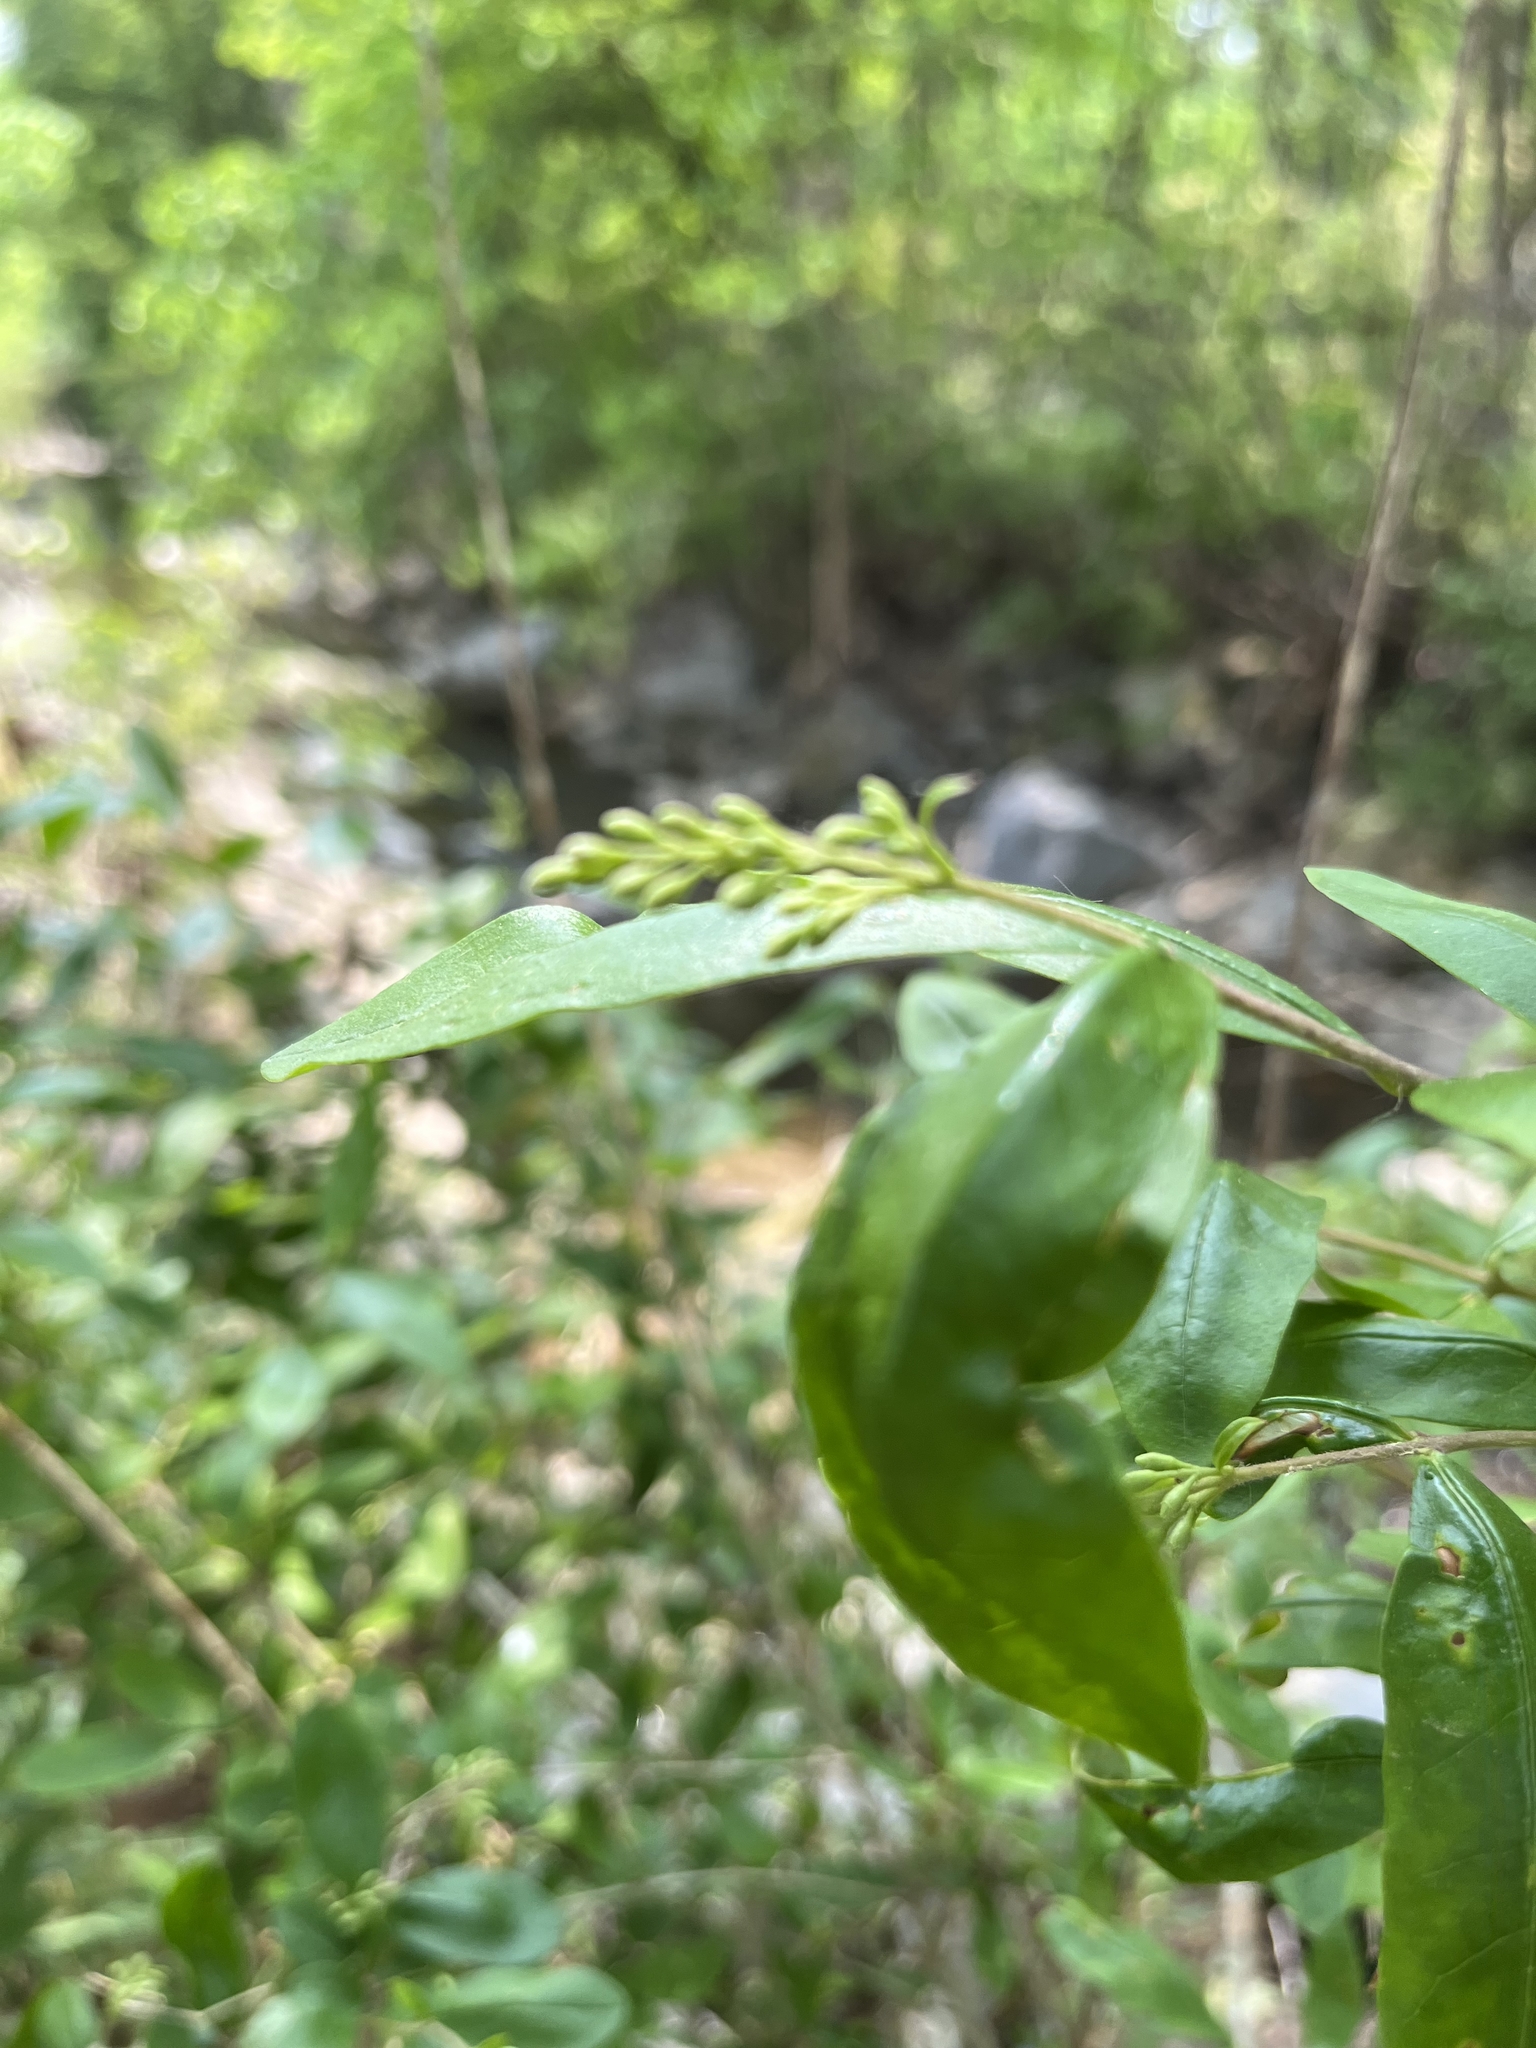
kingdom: Plantae
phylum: Tracheophyta
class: Magnoliopsida
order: Lamiales
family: Oleaceae
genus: Ligustrum
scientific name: Ligustrum obtusifolium
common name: Border privet
